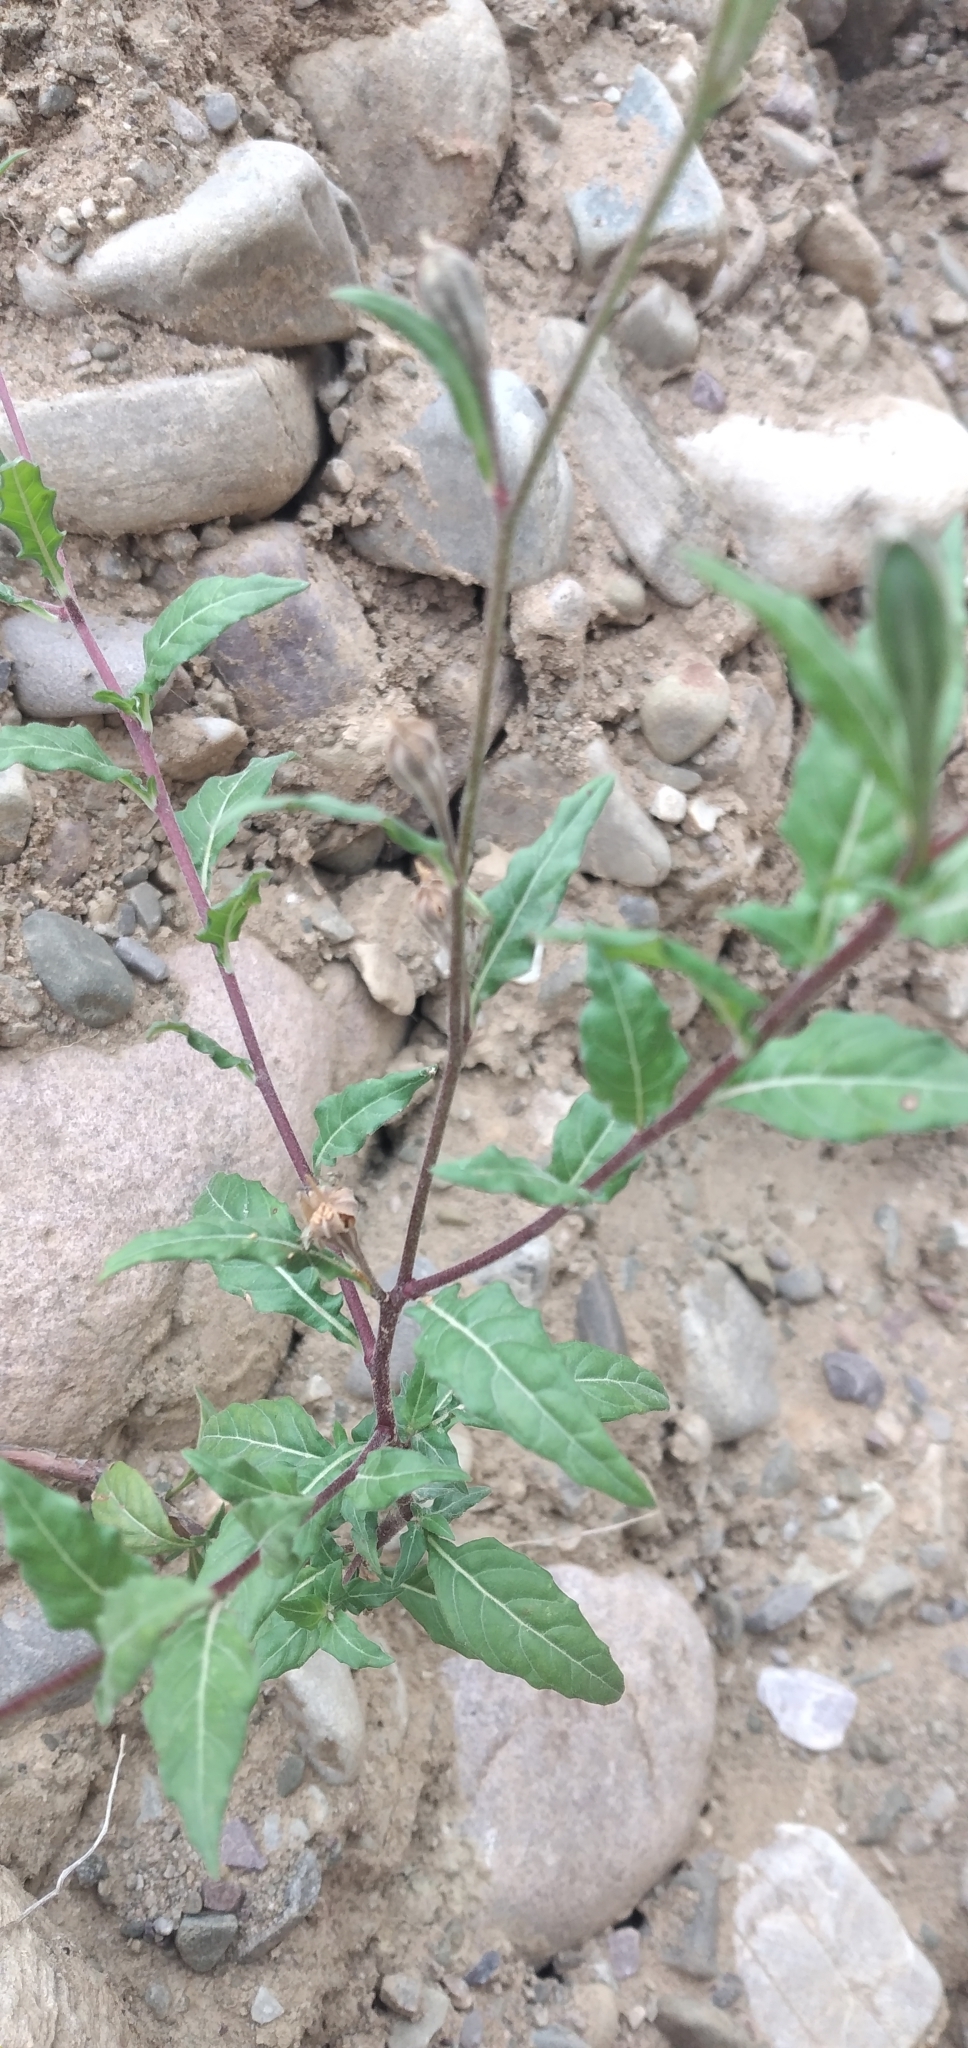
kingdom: Plantae
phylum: Tracheophyta
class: Magnoliopsida
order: Myrtales
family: Onagraceae
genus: Oenothera
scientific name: Oenothera rosea
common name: Rosy evening-primrose
